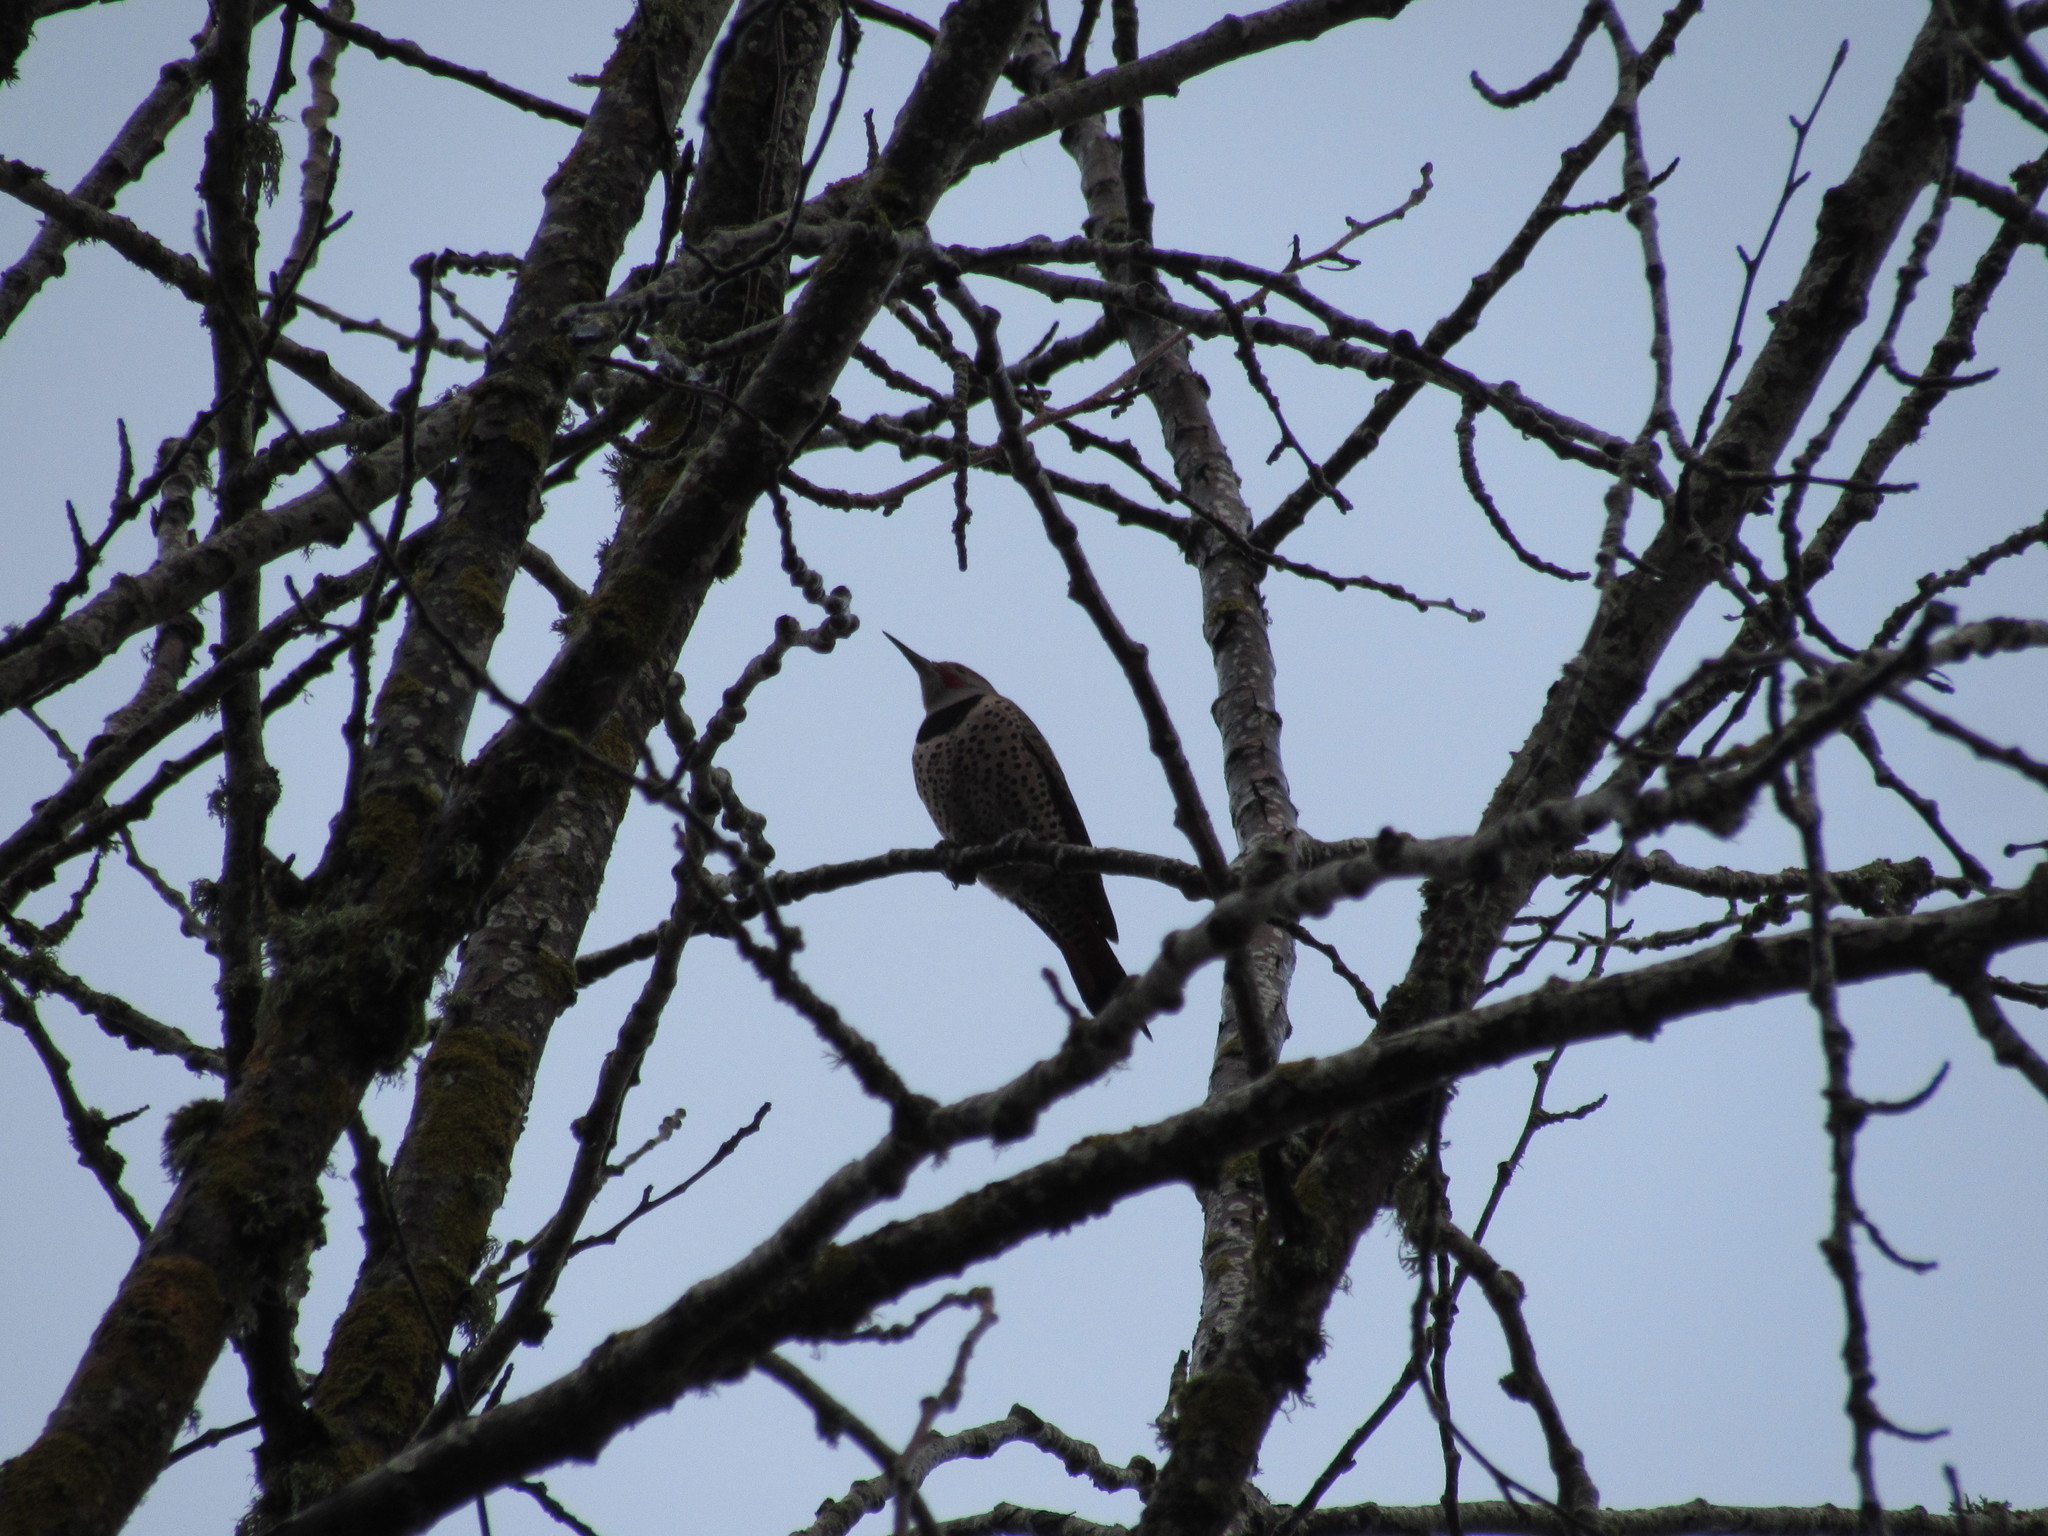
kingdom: Animalia
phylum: Chordata
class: Aves
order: Piciformes
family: Picidae
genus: Colaptes
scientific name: Colaptes auratus
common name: Northern flicker
